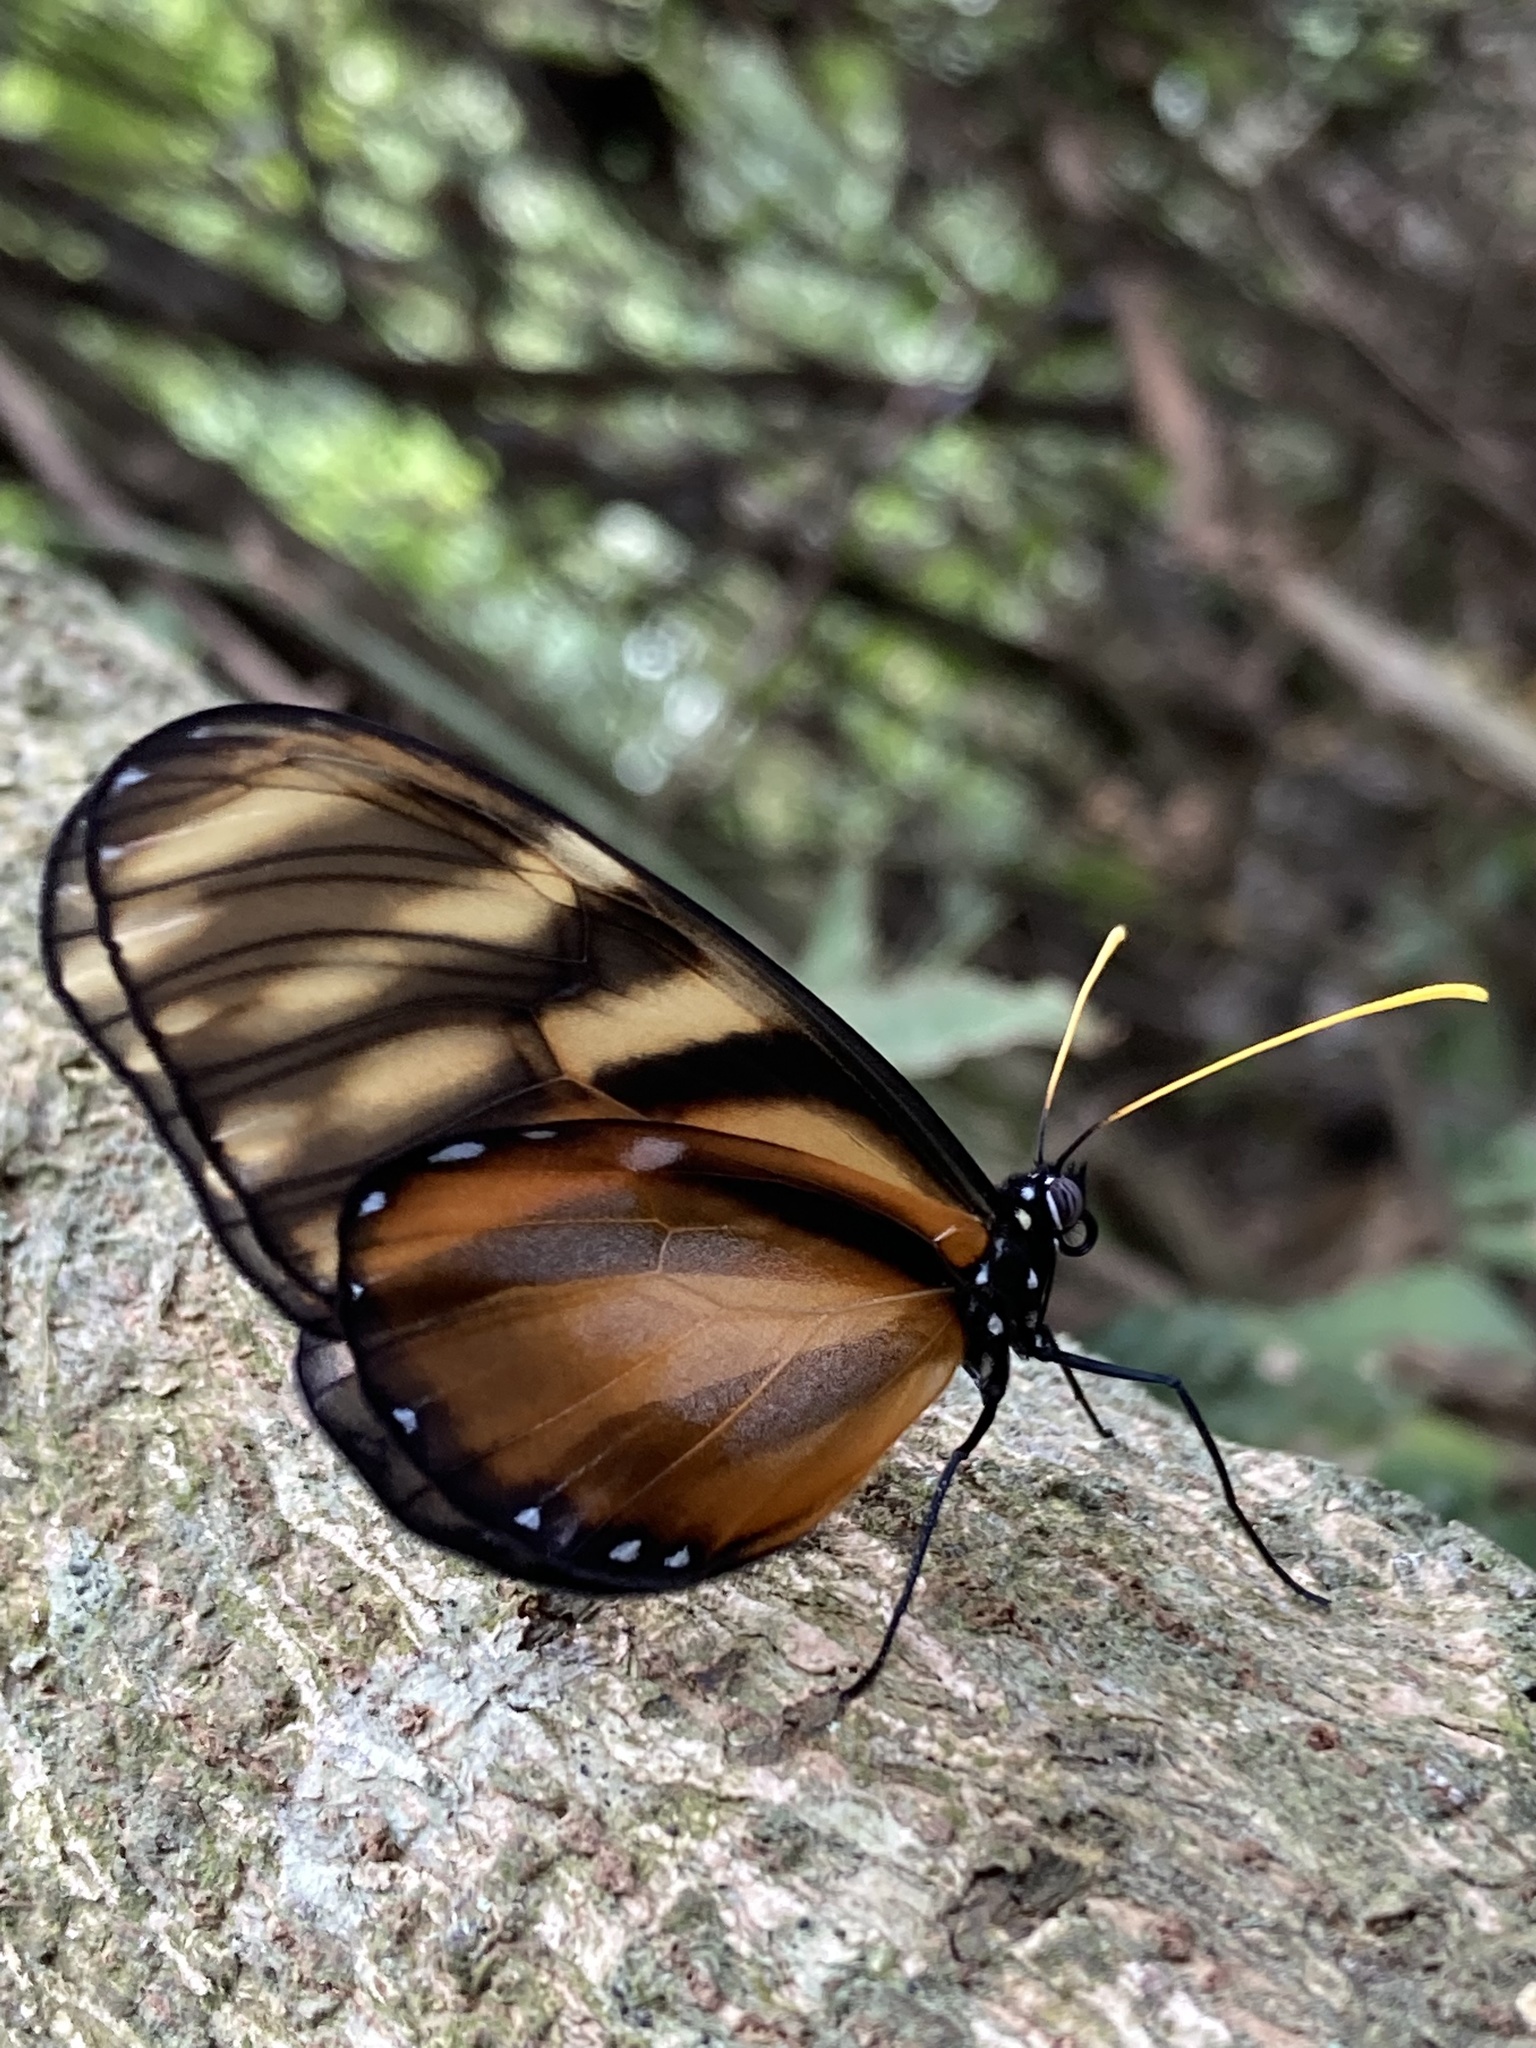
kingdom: Animalia
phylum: Arthropoda
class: Insecta
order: Lepidoptera
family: Nymphalidae
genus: Dircenna
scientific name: Dircenna klugii
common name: Klug’s clearwing
